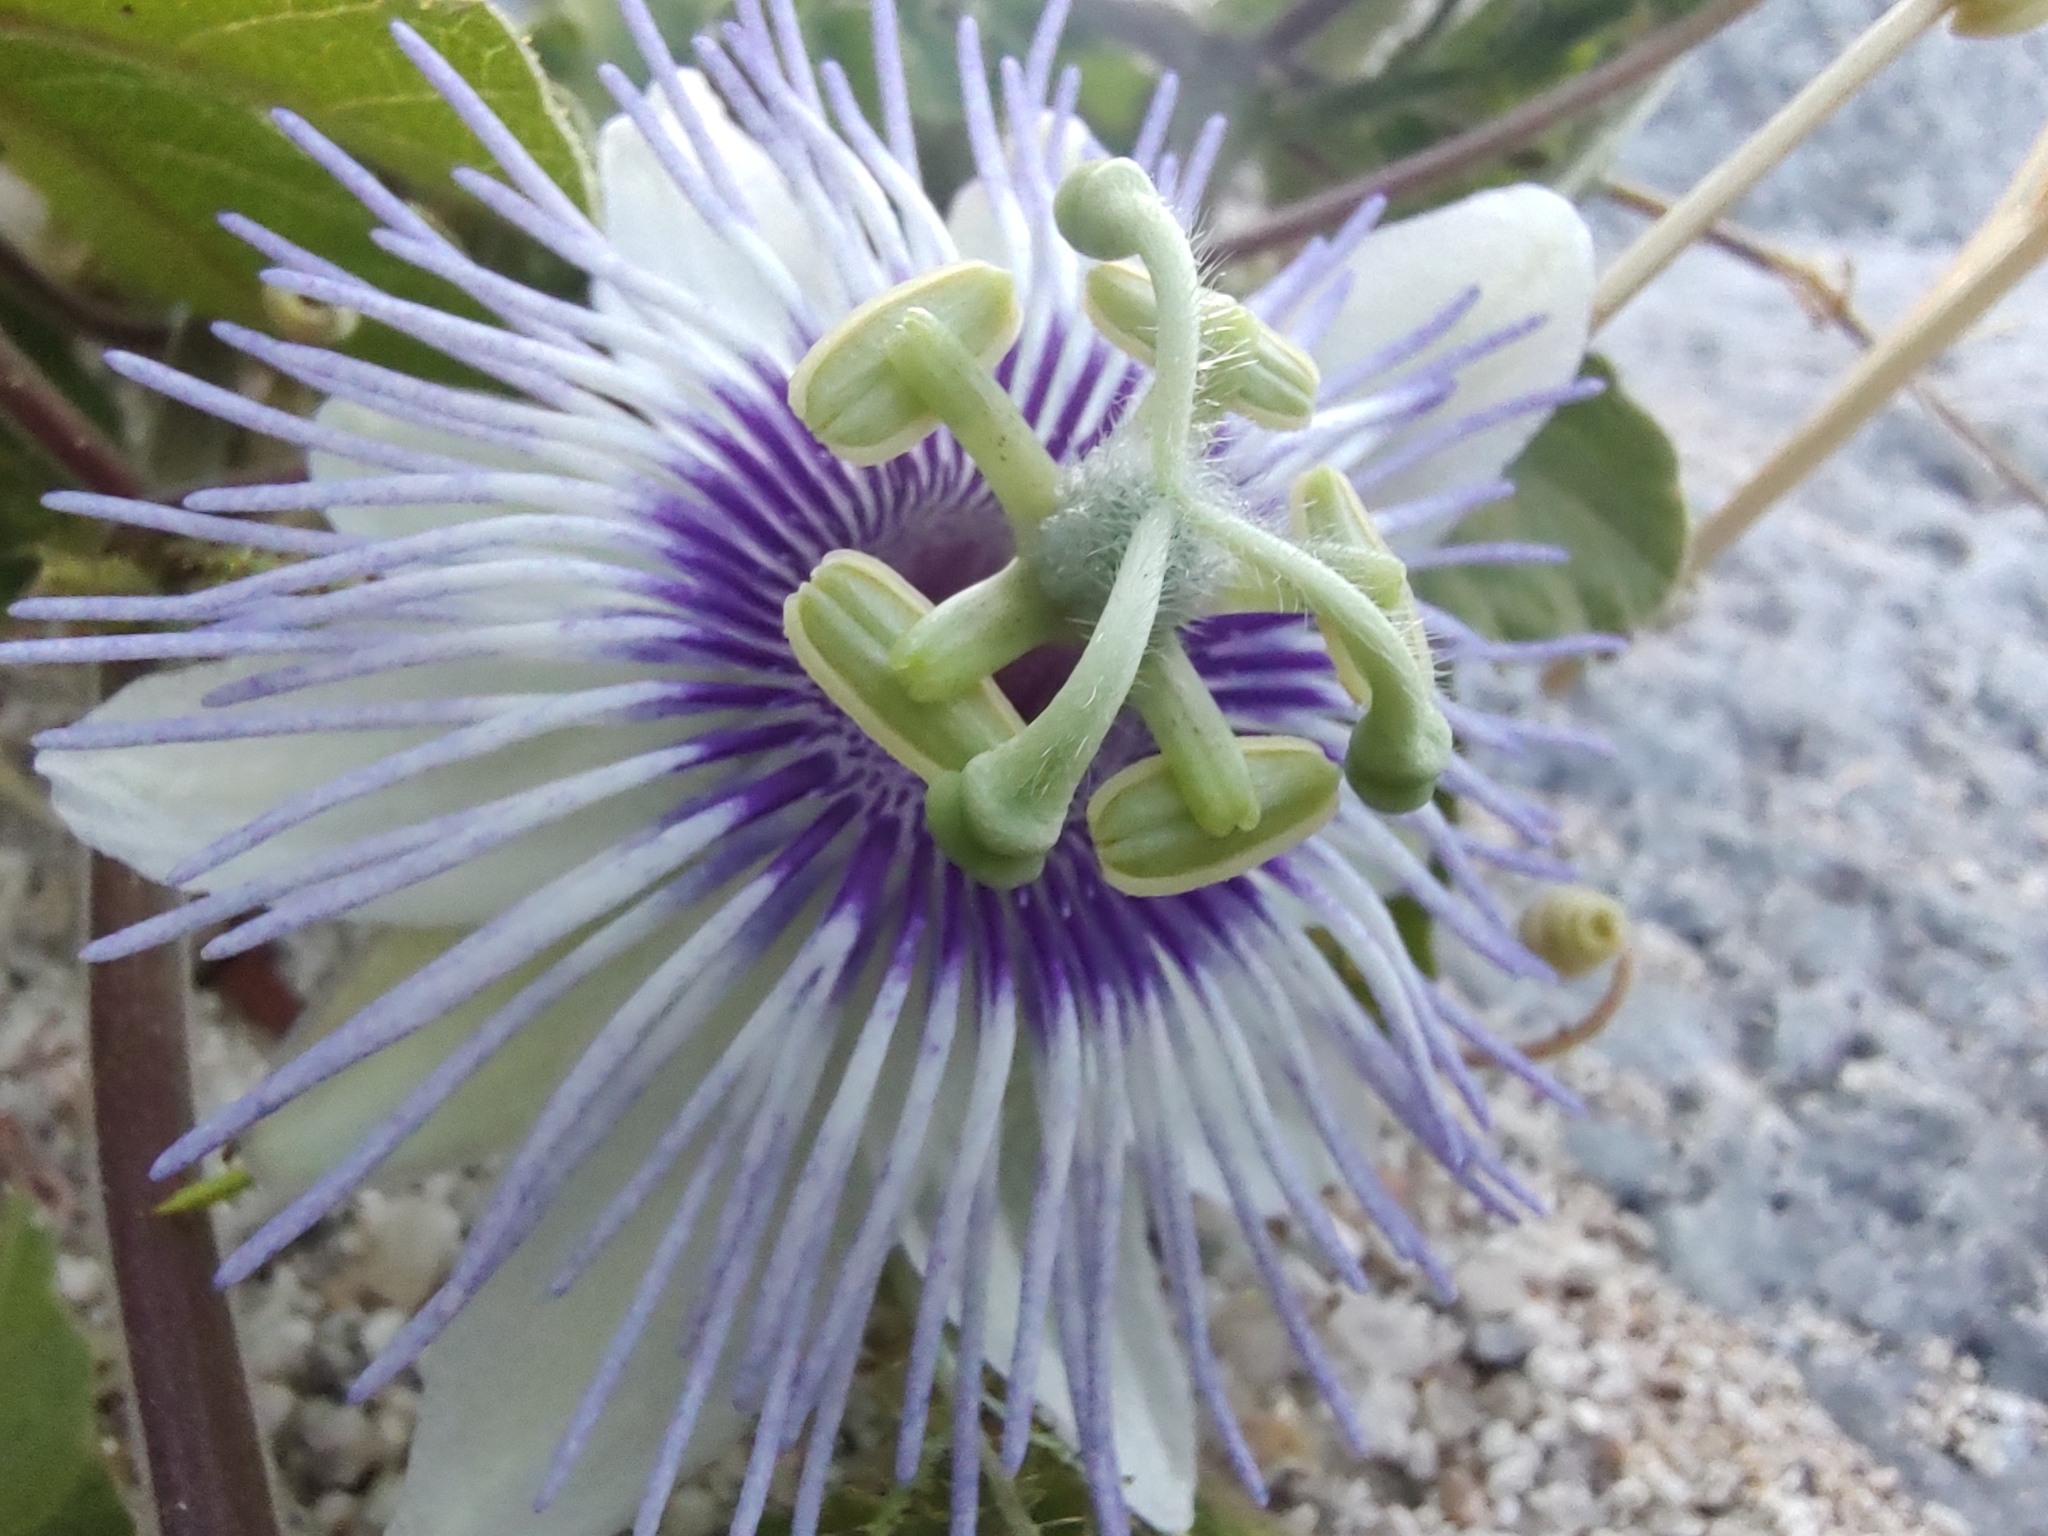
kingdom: Plantae
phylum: Tracheophyta
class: Magnoliopsida
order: Malpighiales
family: Passifloraceae
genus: Passiflora
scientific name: Passiflora arida
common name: Desert passionflower
